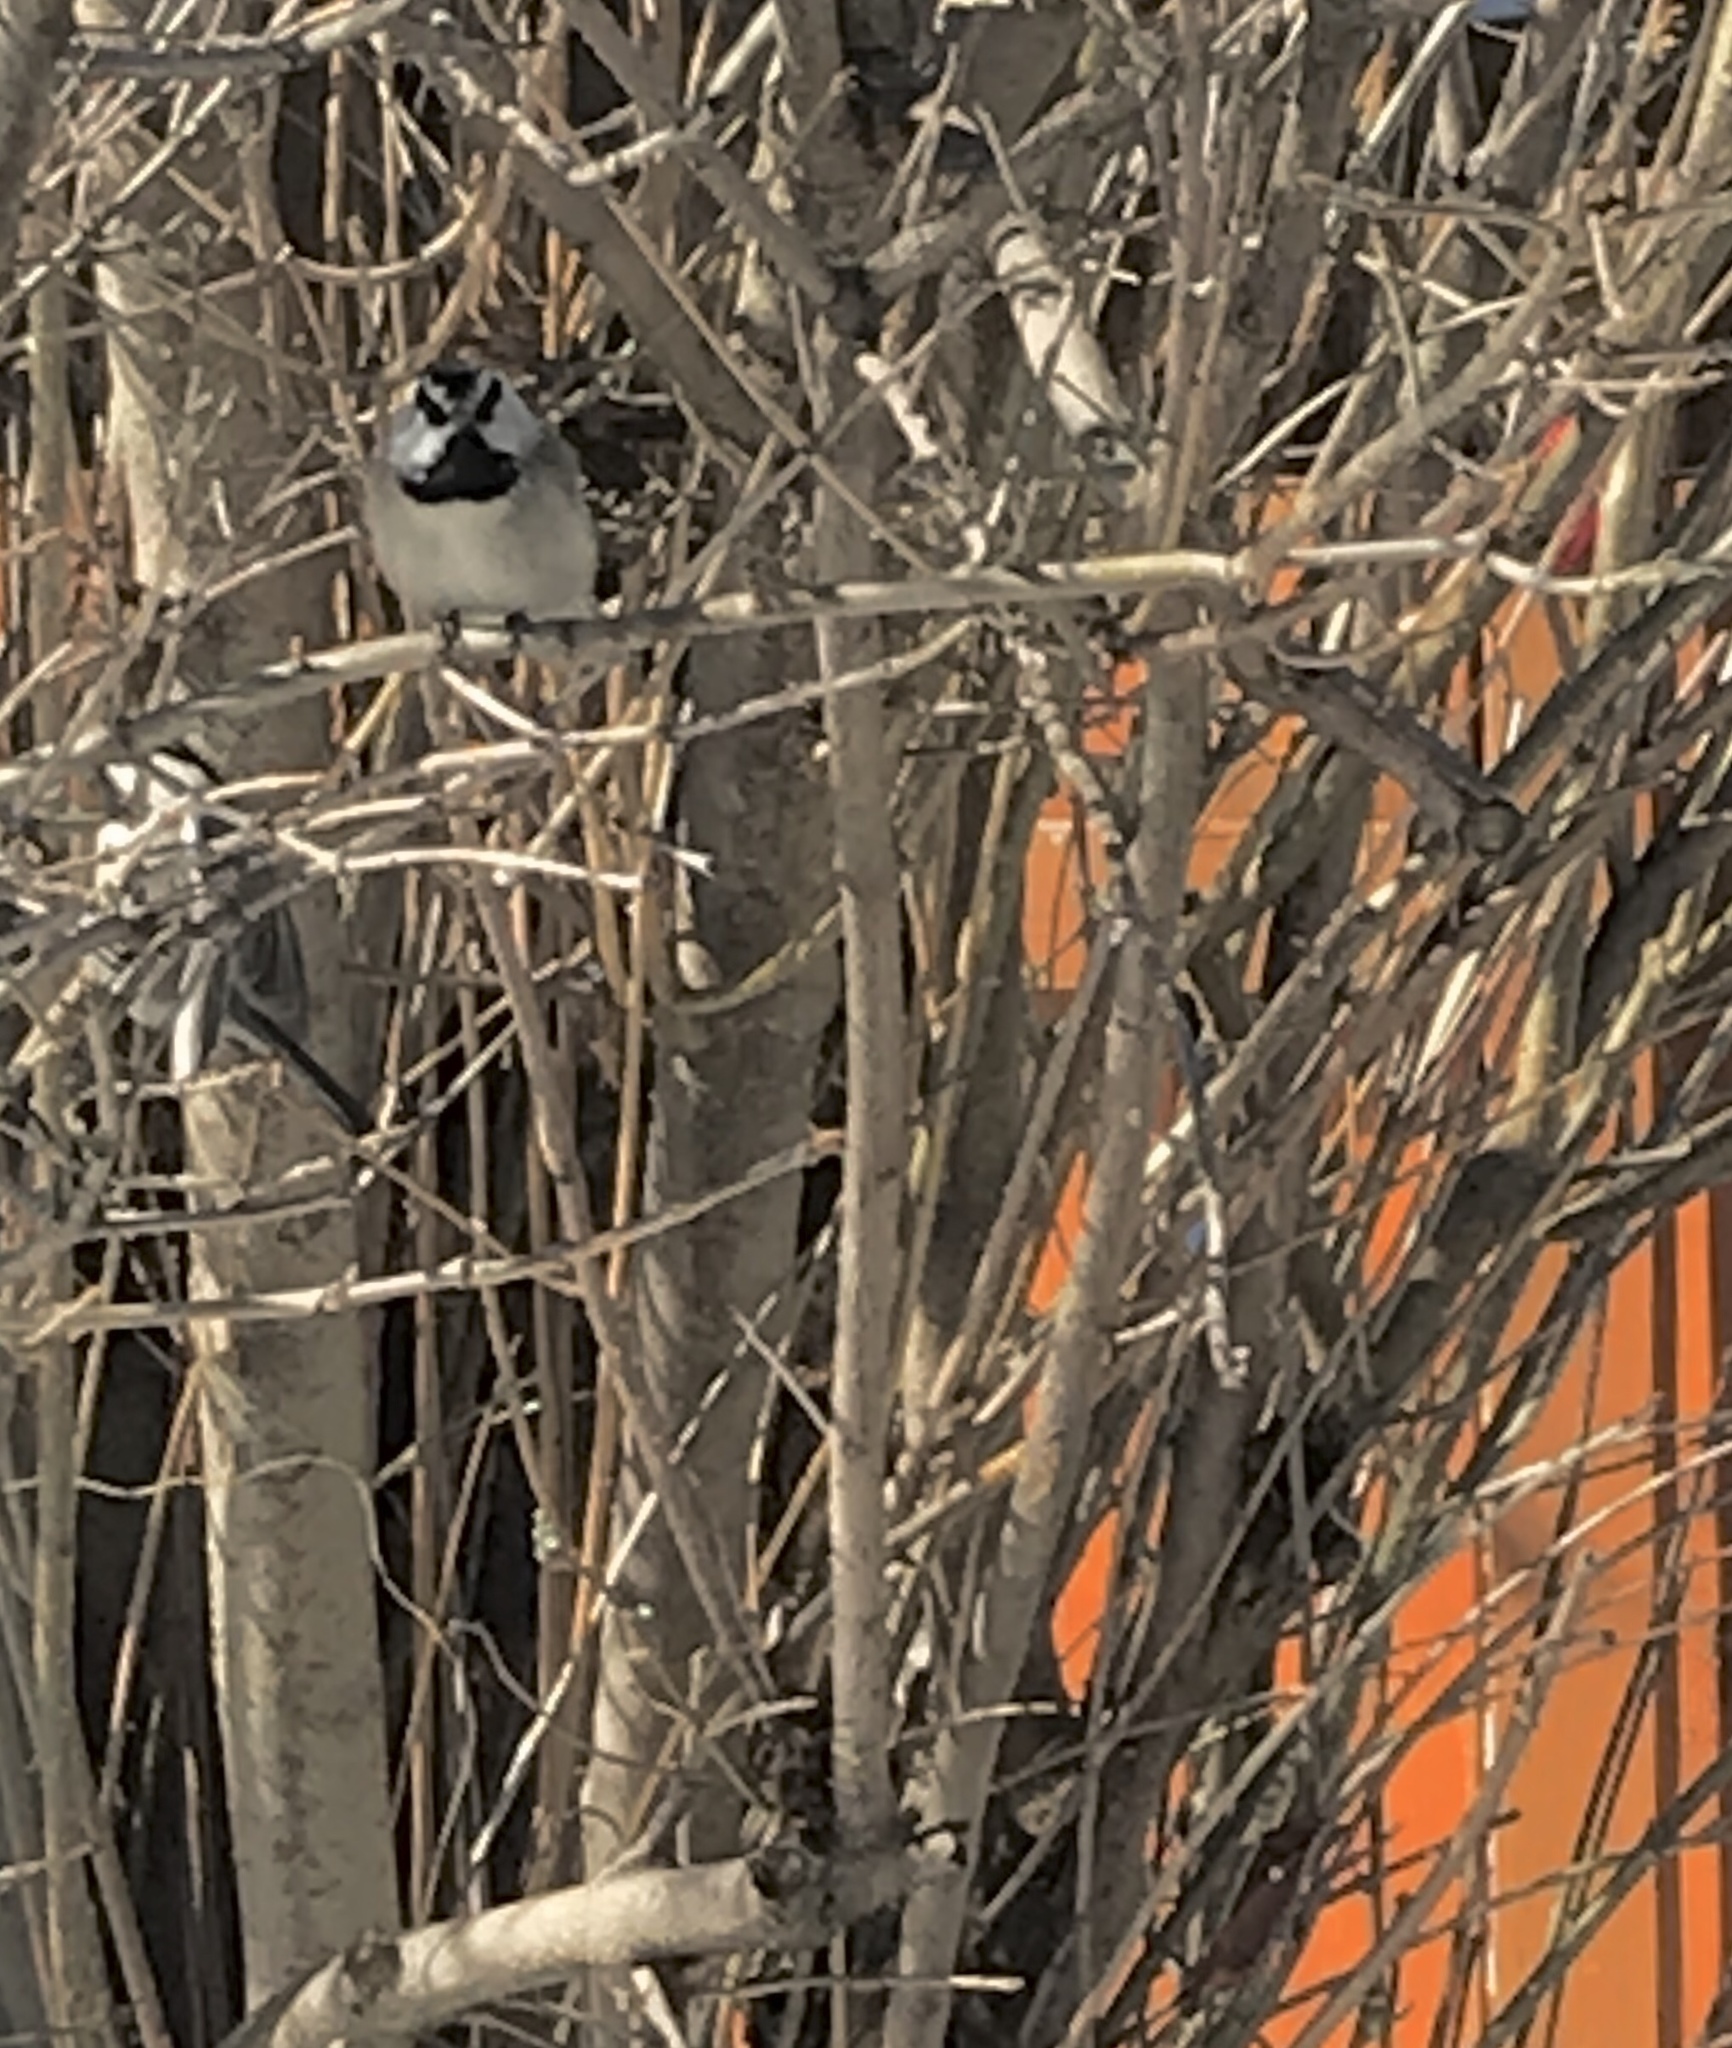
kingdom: Animalia
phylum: Chordata
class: Aves
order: Passeriformes
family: Paridae
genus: Poecile
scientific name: Poecile gambeli
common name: Mountain chickadee
